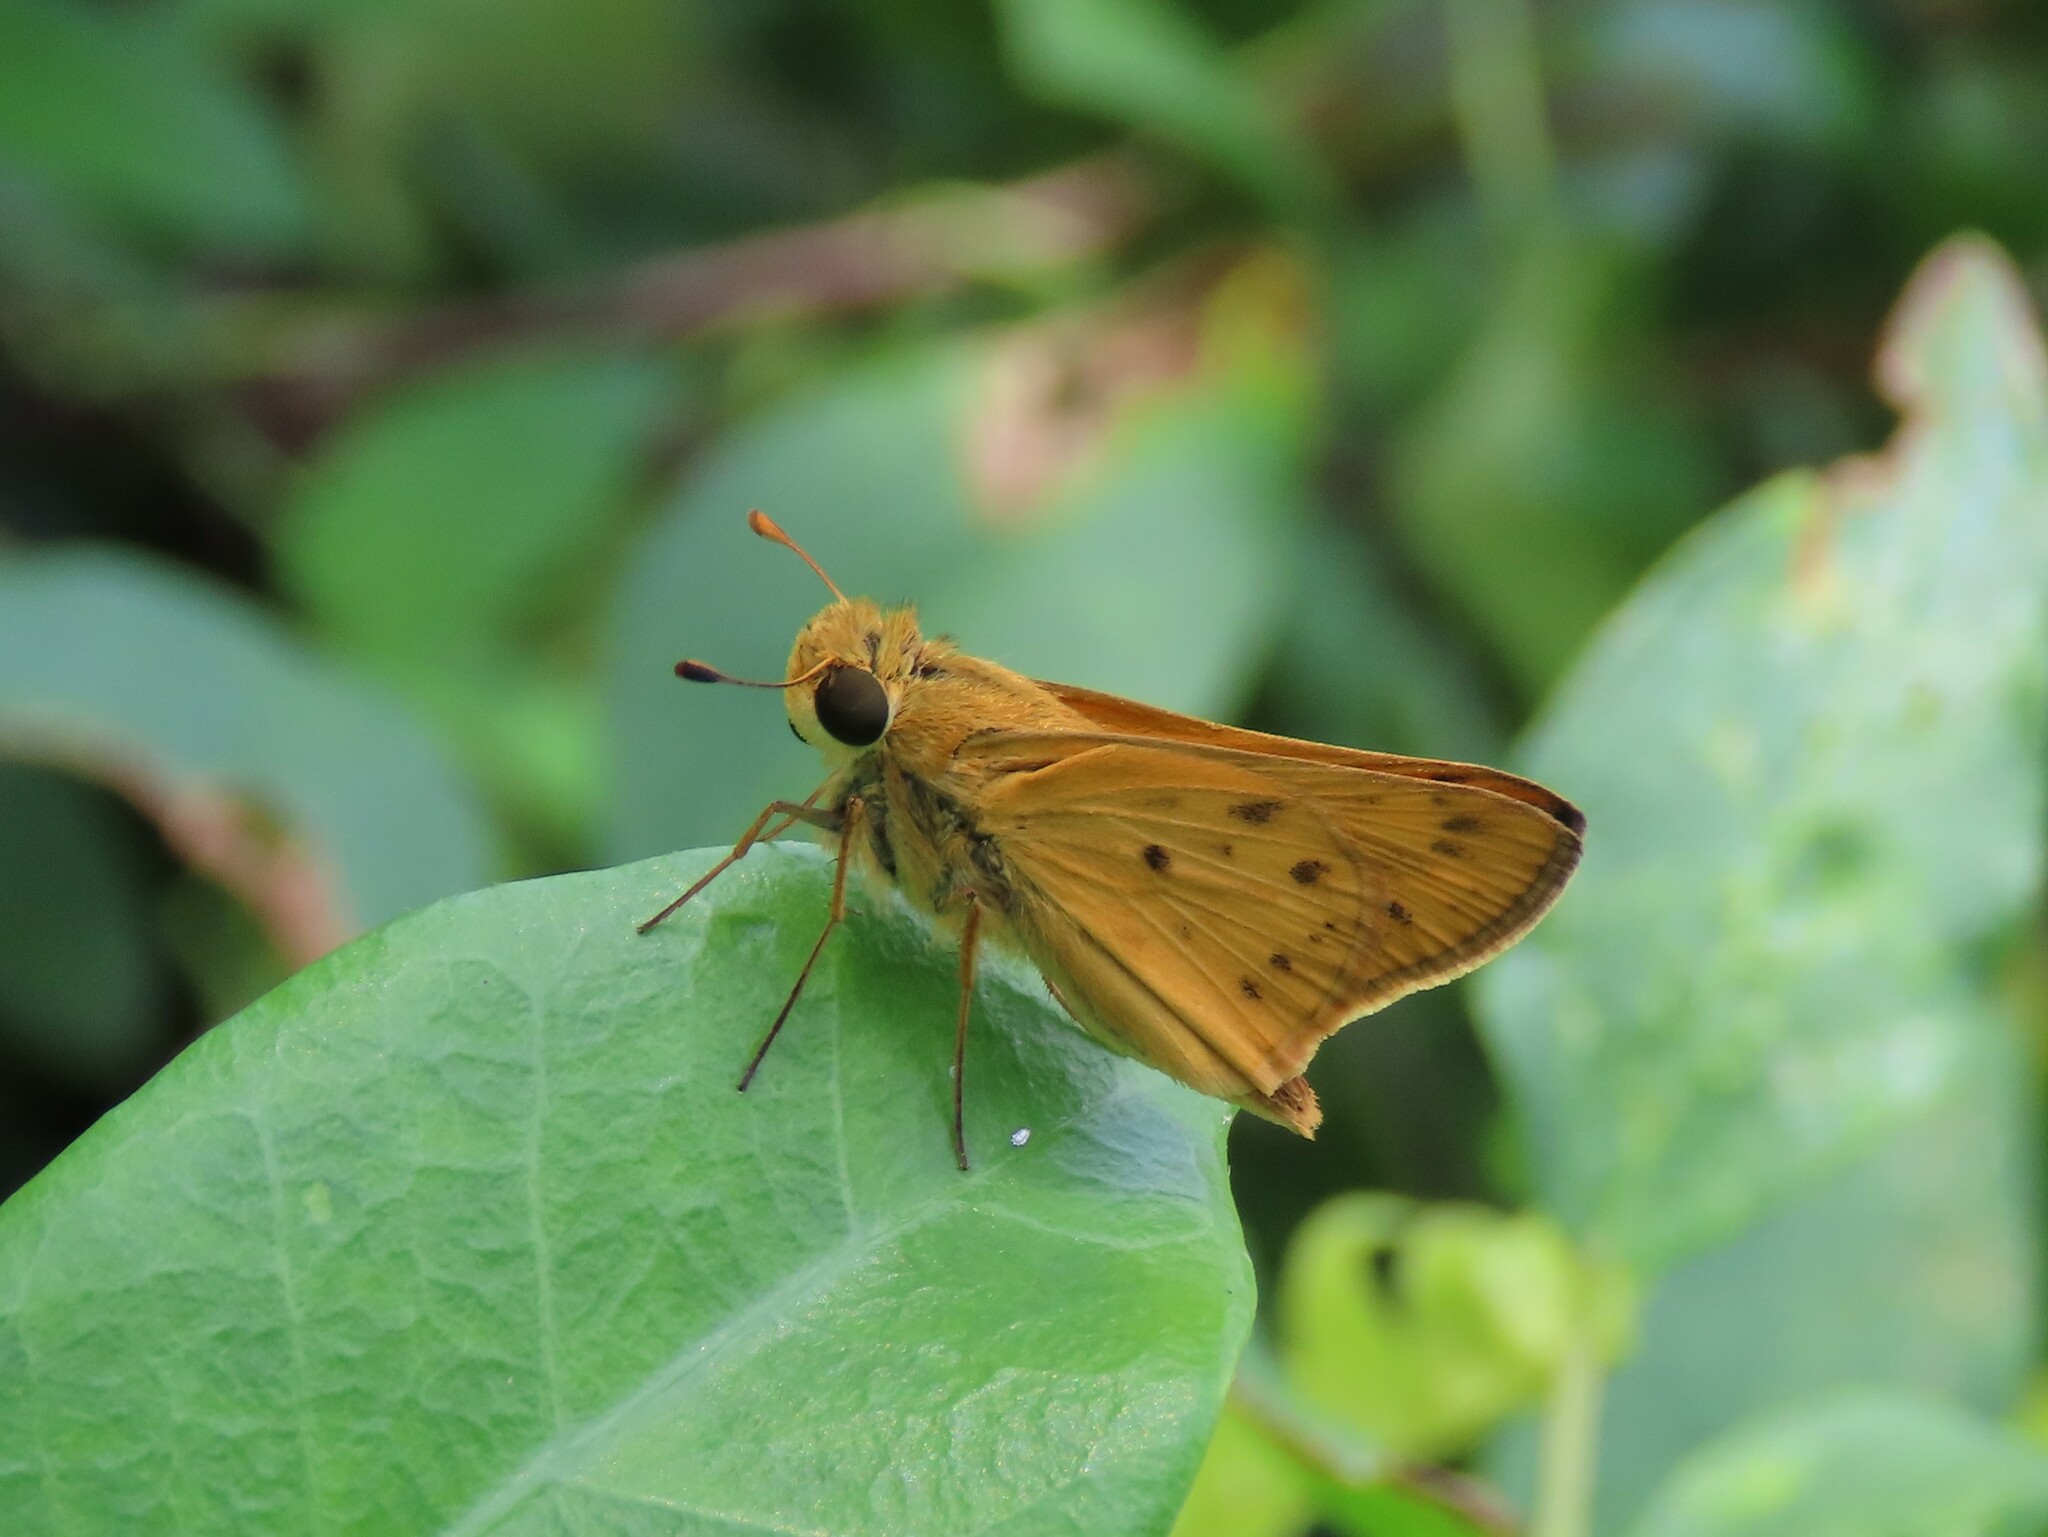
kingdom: Animalia
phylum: Arthropoda
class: Insecta
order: Lepidoptera
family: Hesperiidae
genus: Hylephila
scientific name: Hylephila phyleus
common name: Fiery skipper
